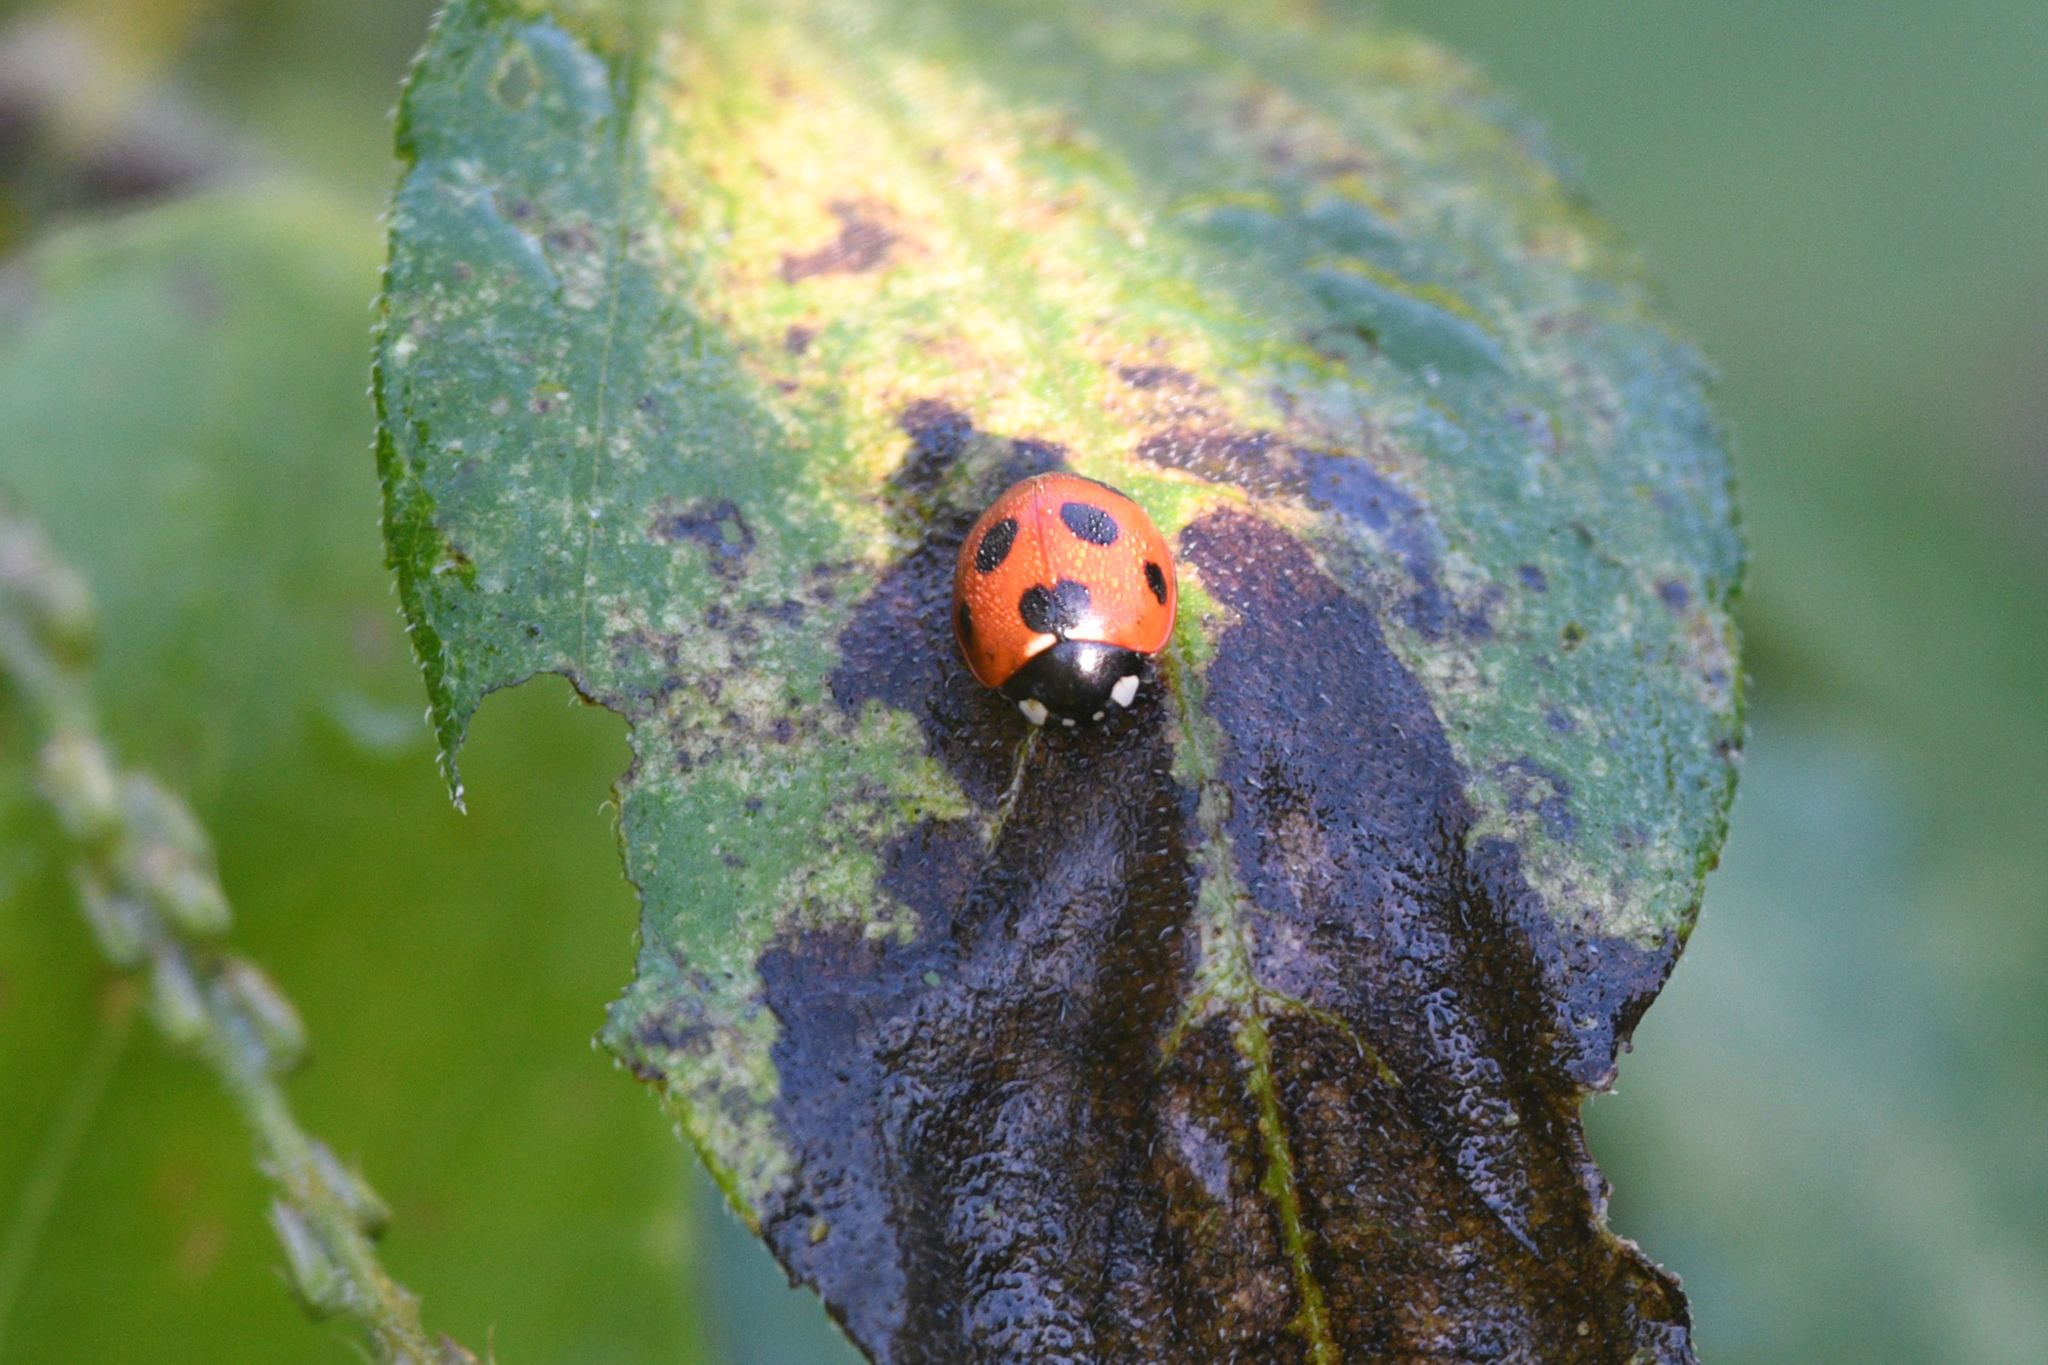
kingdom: Animalia
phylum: Arthropoda
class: Insecta
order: Coleoptera
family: Coccinellidae
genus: Coccinella
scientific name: Coccinella septempunctata
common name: Sevenspotted lady beetle
